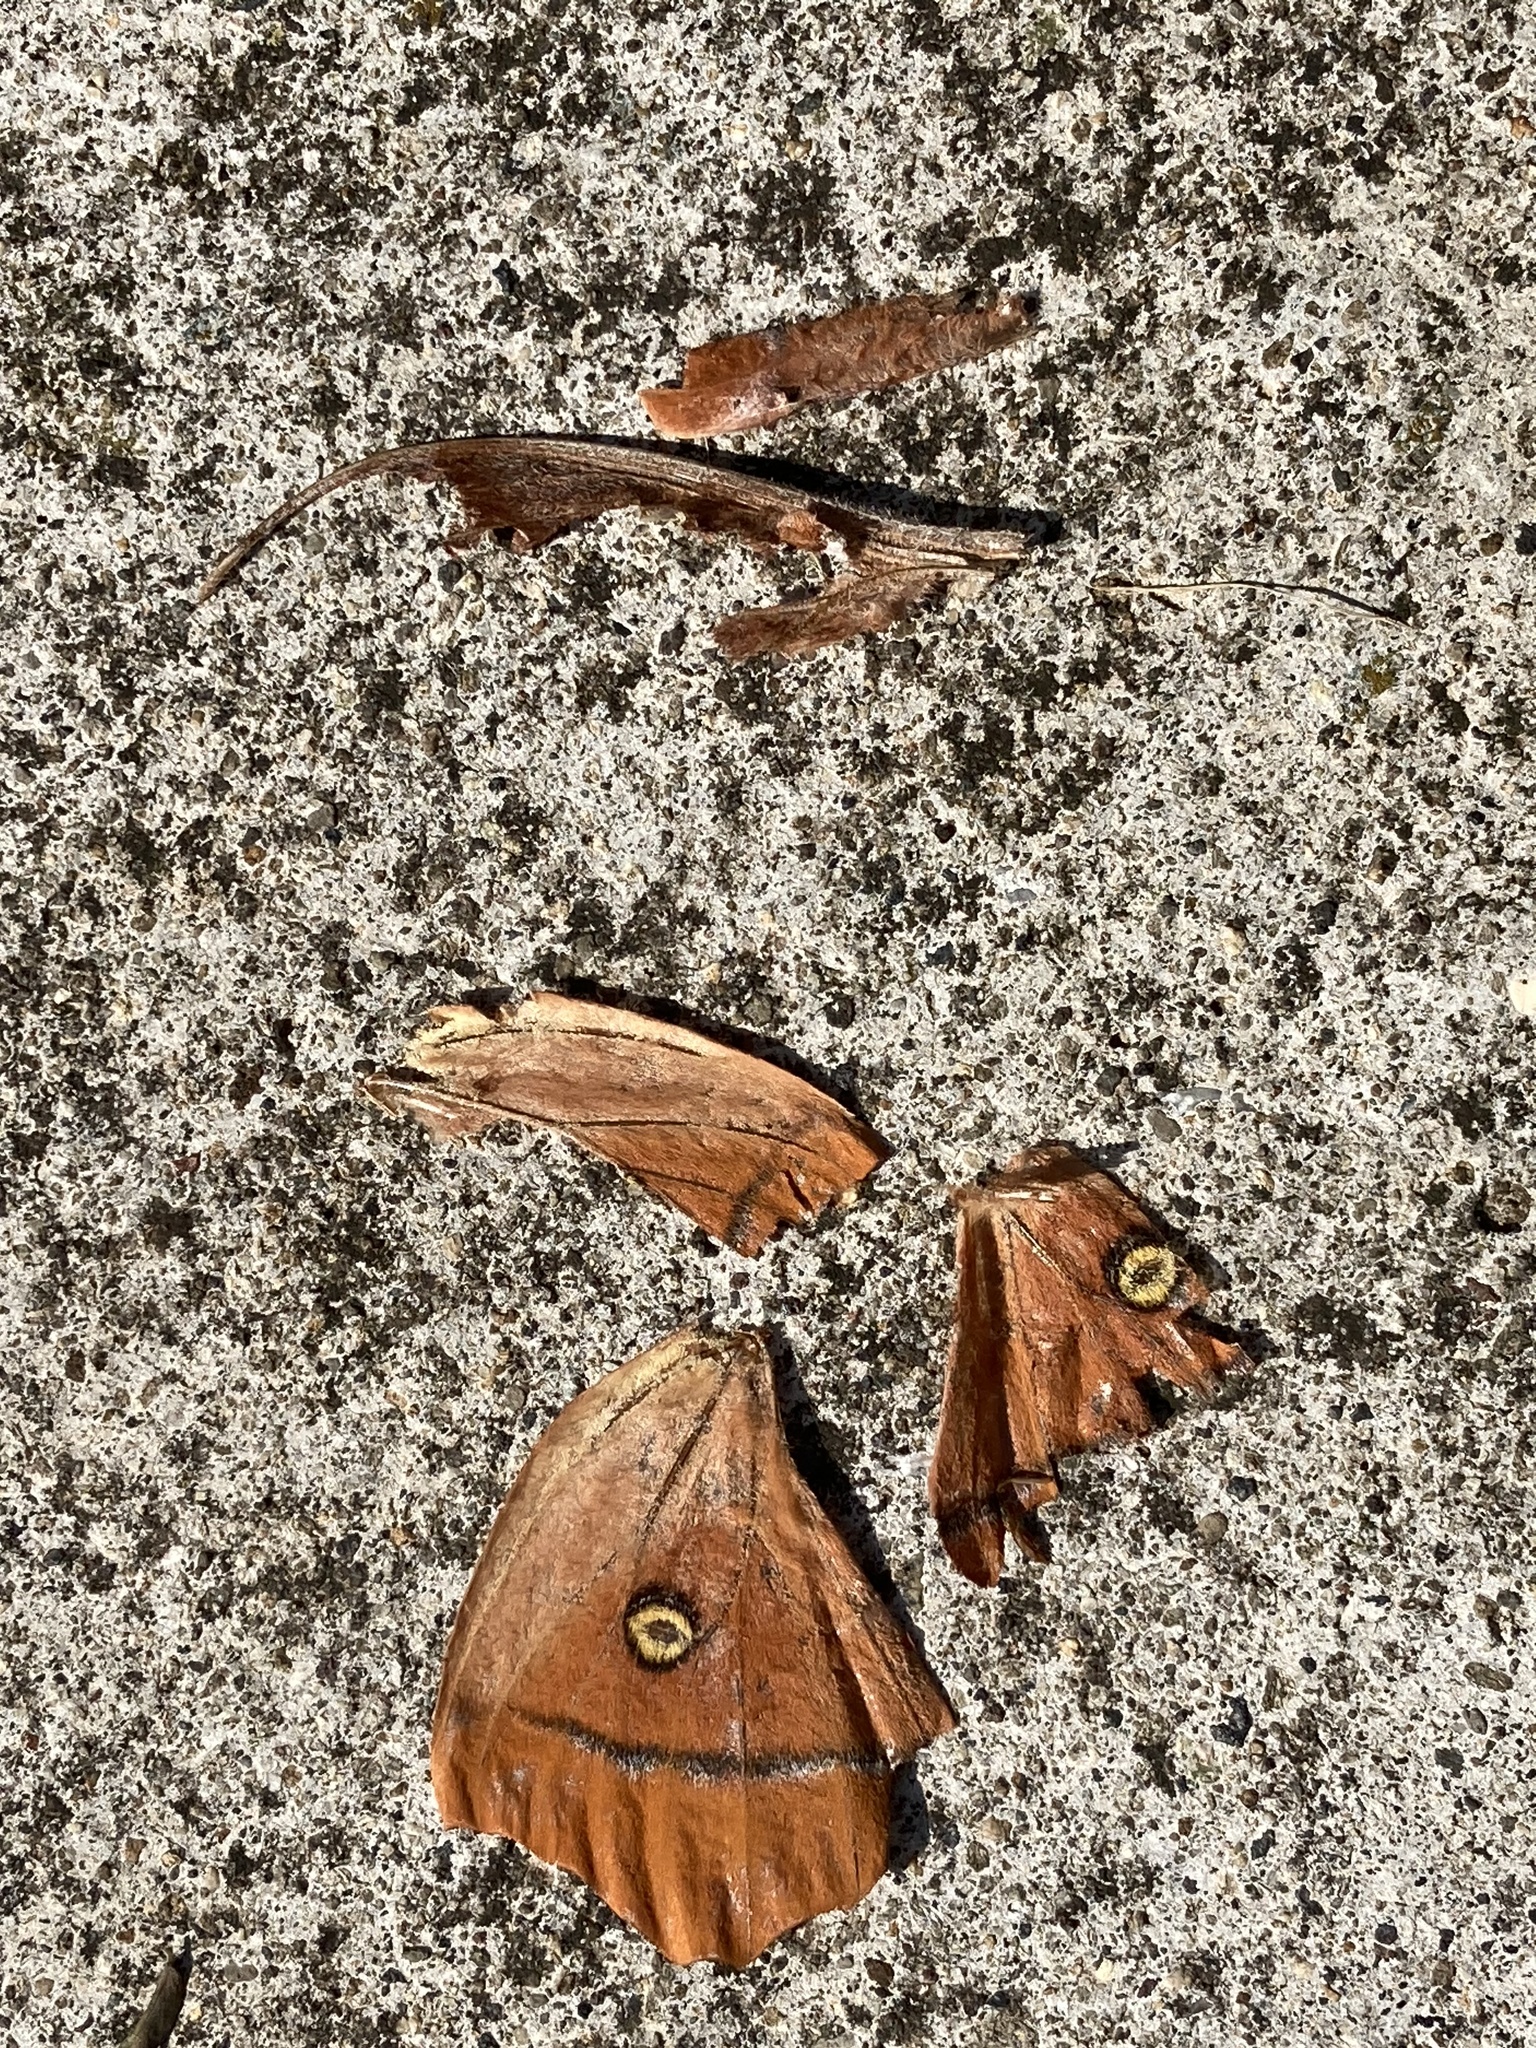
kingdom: Animalia
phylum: Arthropoda
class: Insecta
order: Lepidoptera
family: Saturniidae
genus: Antheraea
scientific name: Antheraea godmani
